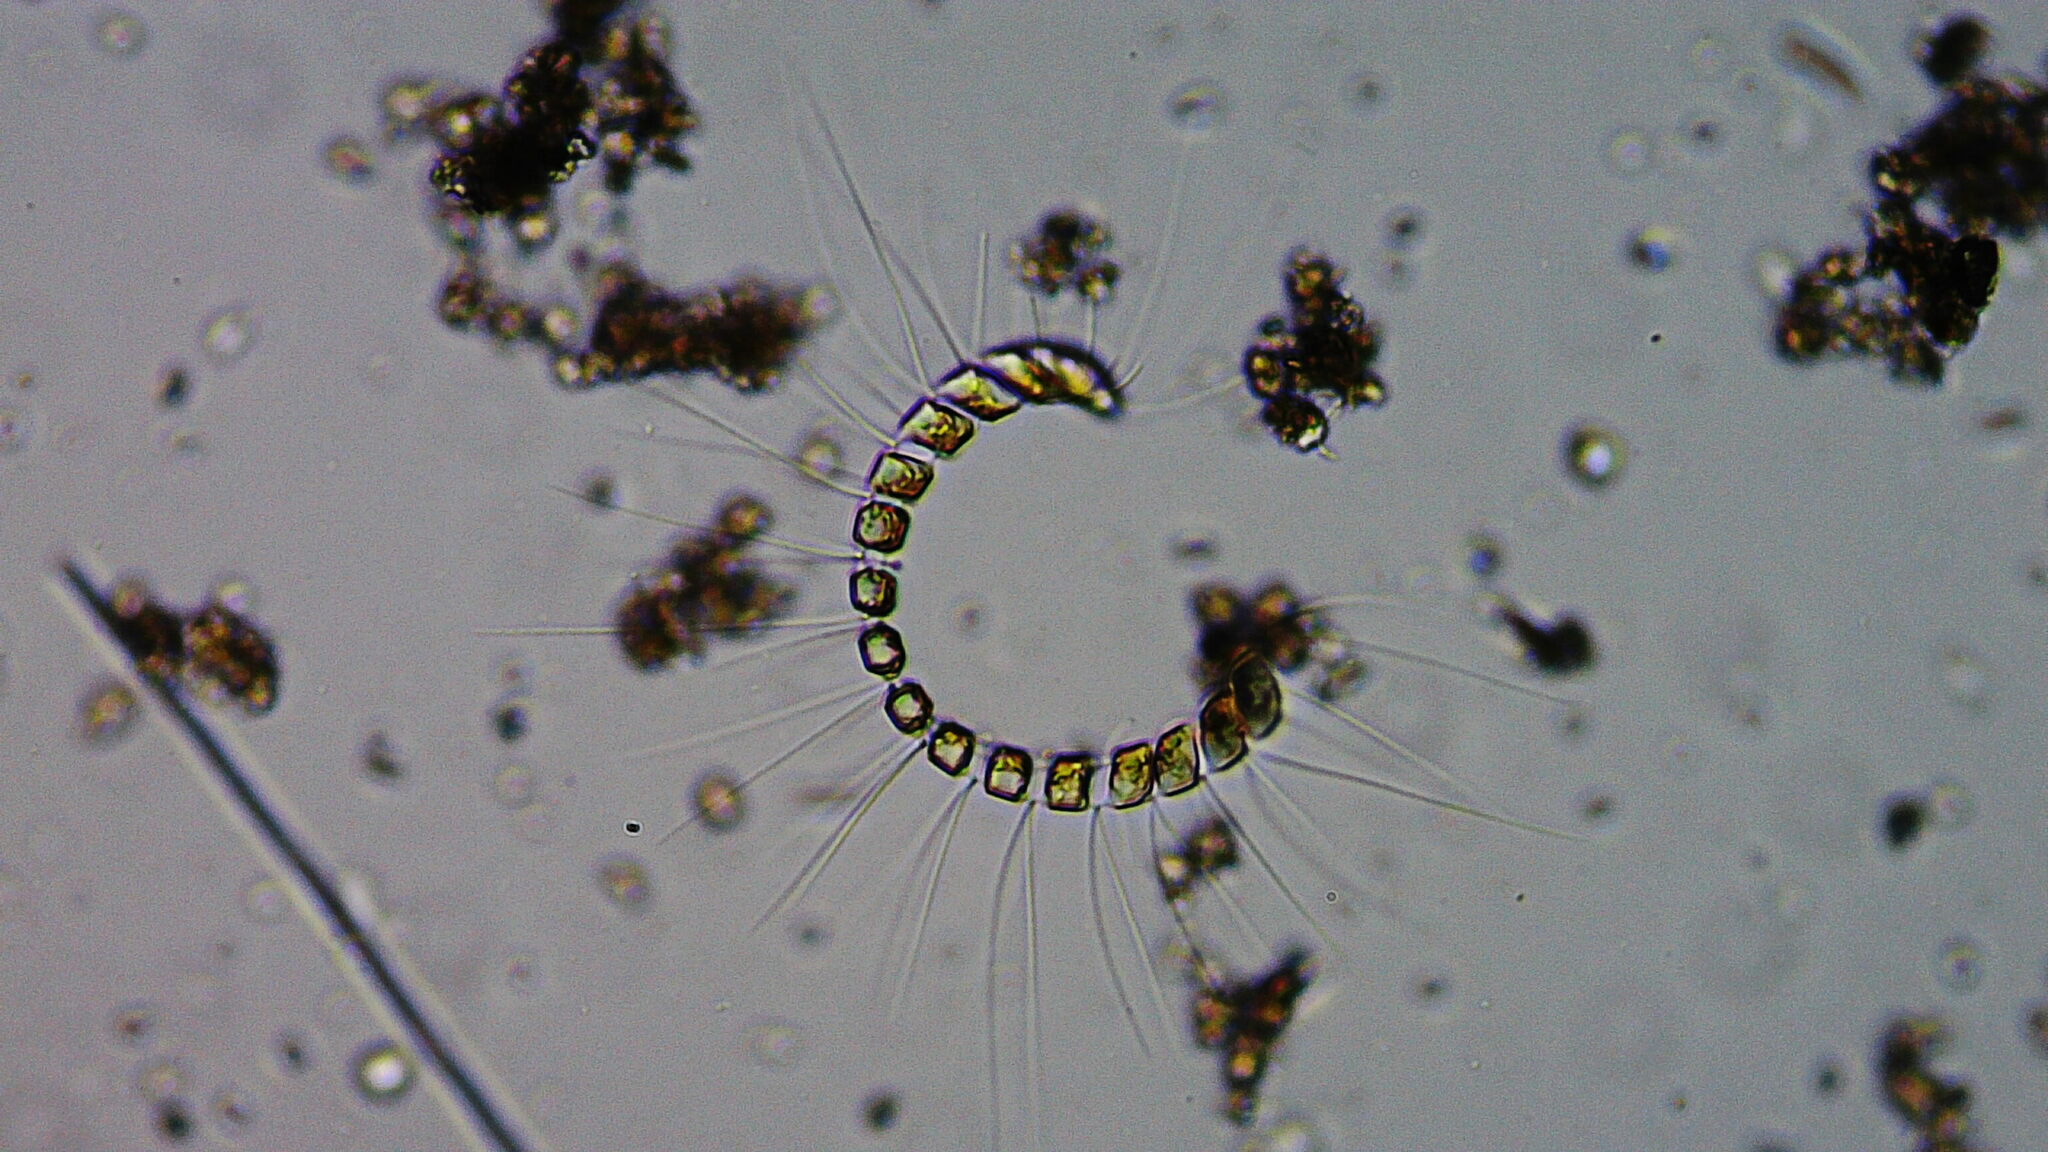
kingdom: Chromista
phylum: Ochrophyta
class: Bacillariophyceae
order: Chaetocerotales
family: Chaetocerotaceae
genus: Chaetoceros
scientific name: Chaetoceros curvisetus
